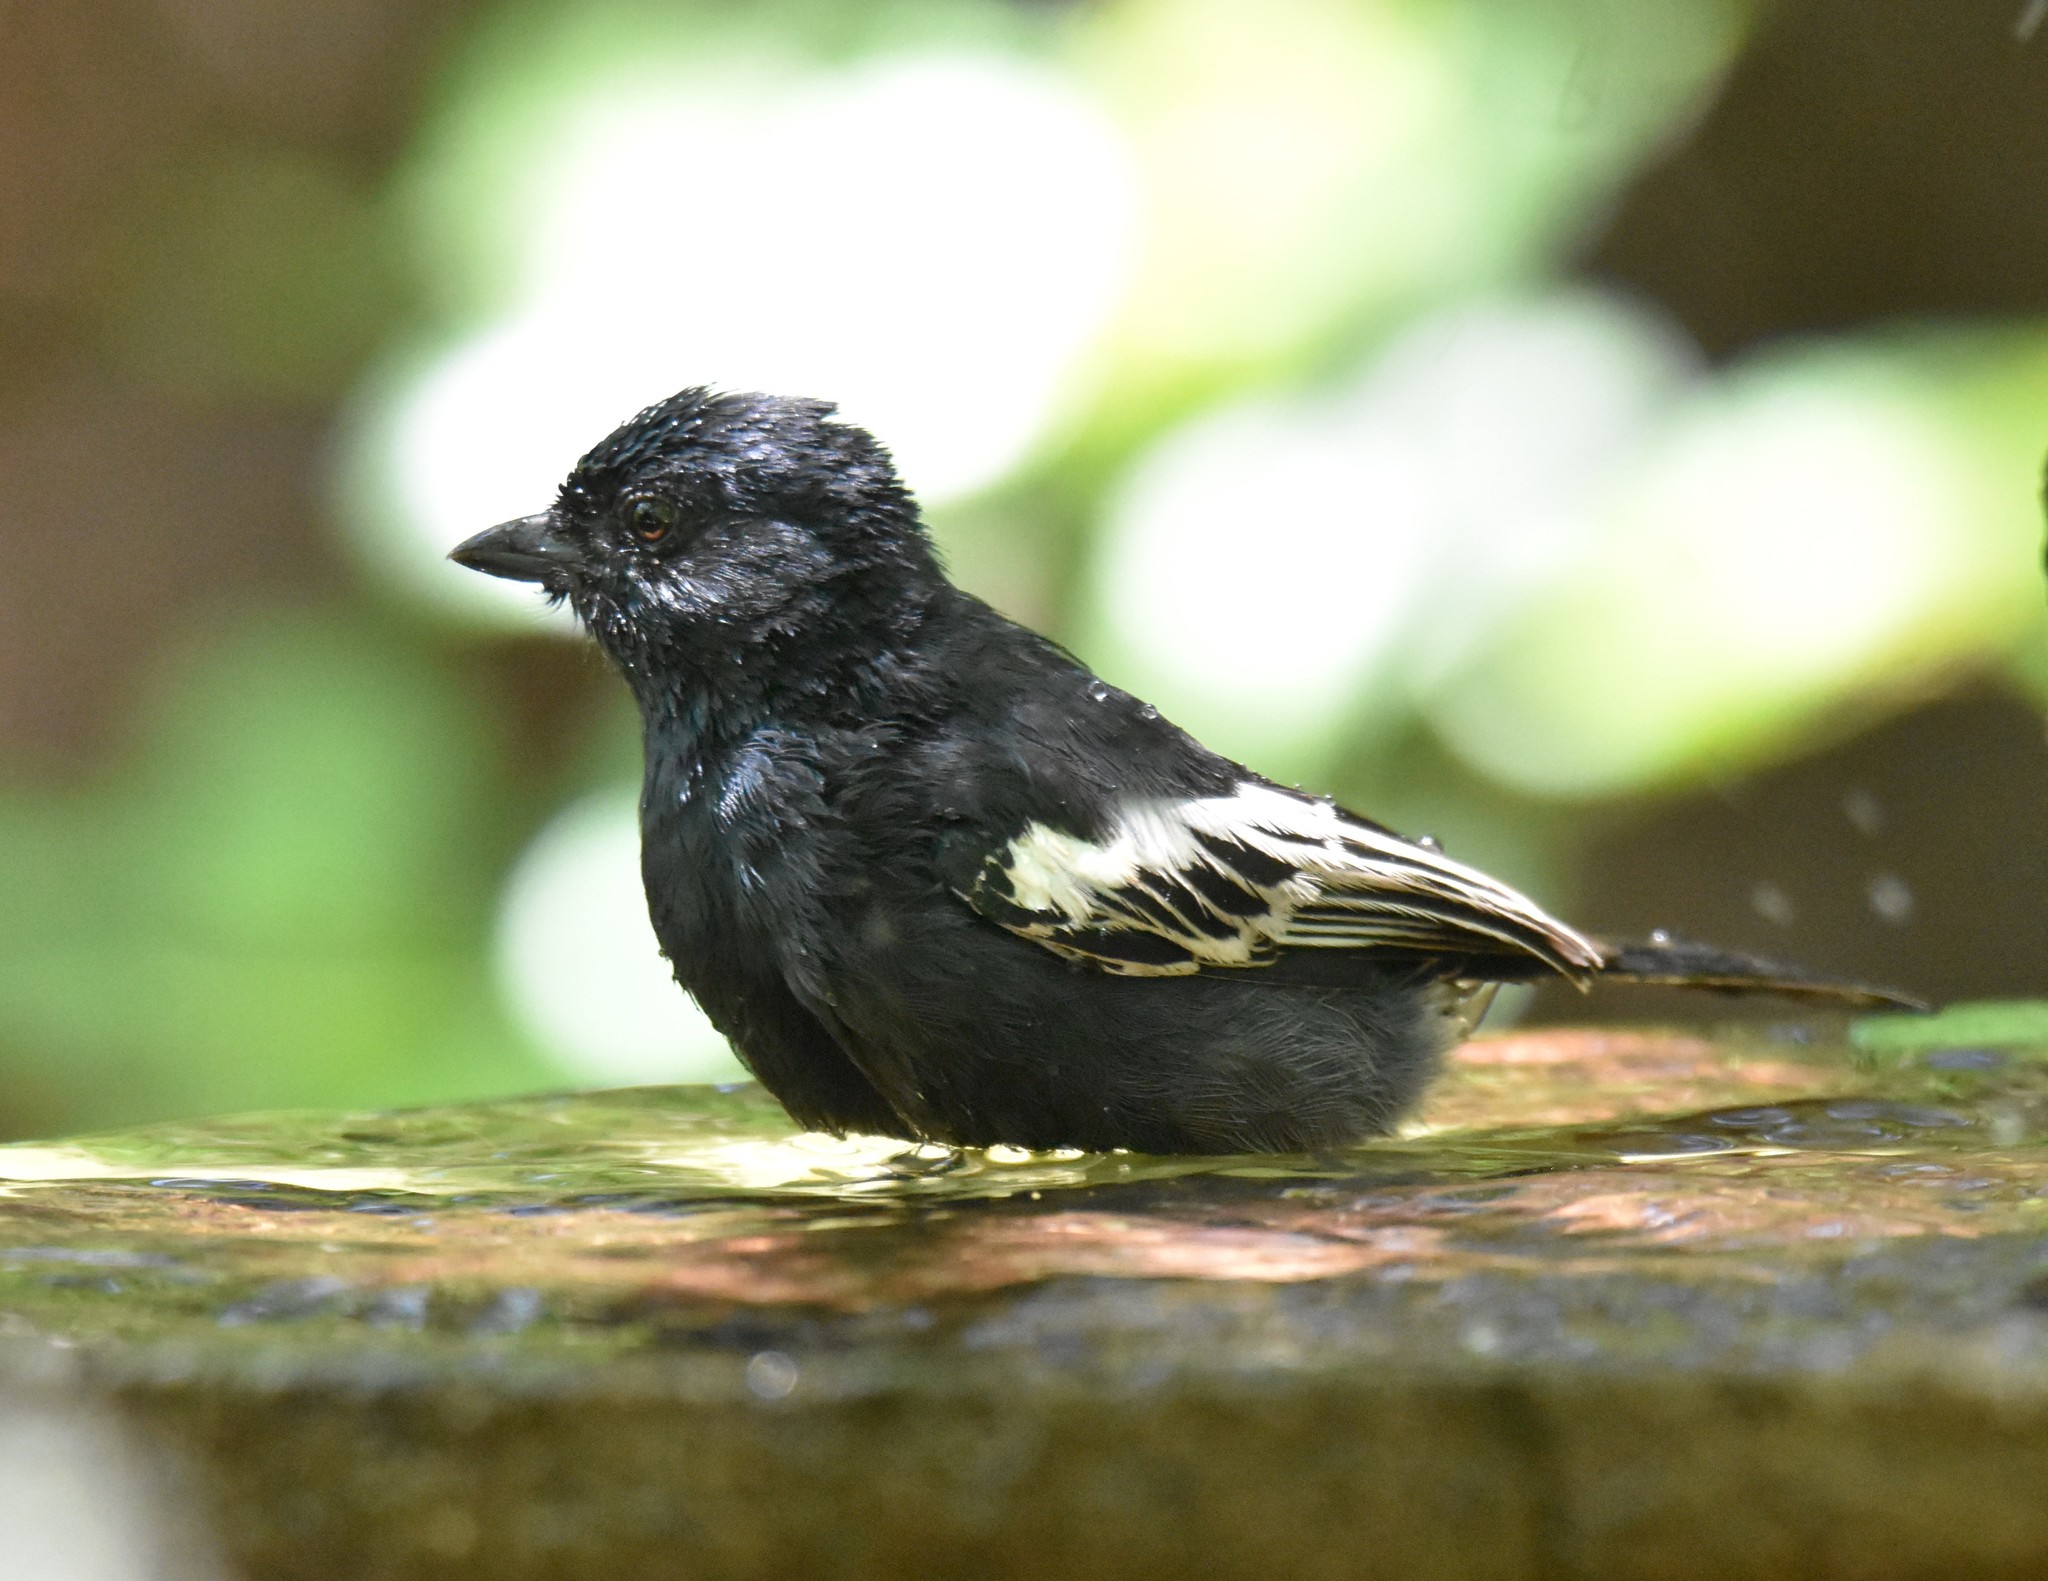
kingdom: Animalia
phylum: Chordata
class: Aves
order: Passeriformes
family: Paridae
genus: Parus
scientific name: Parus niger
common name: Southern black tit
